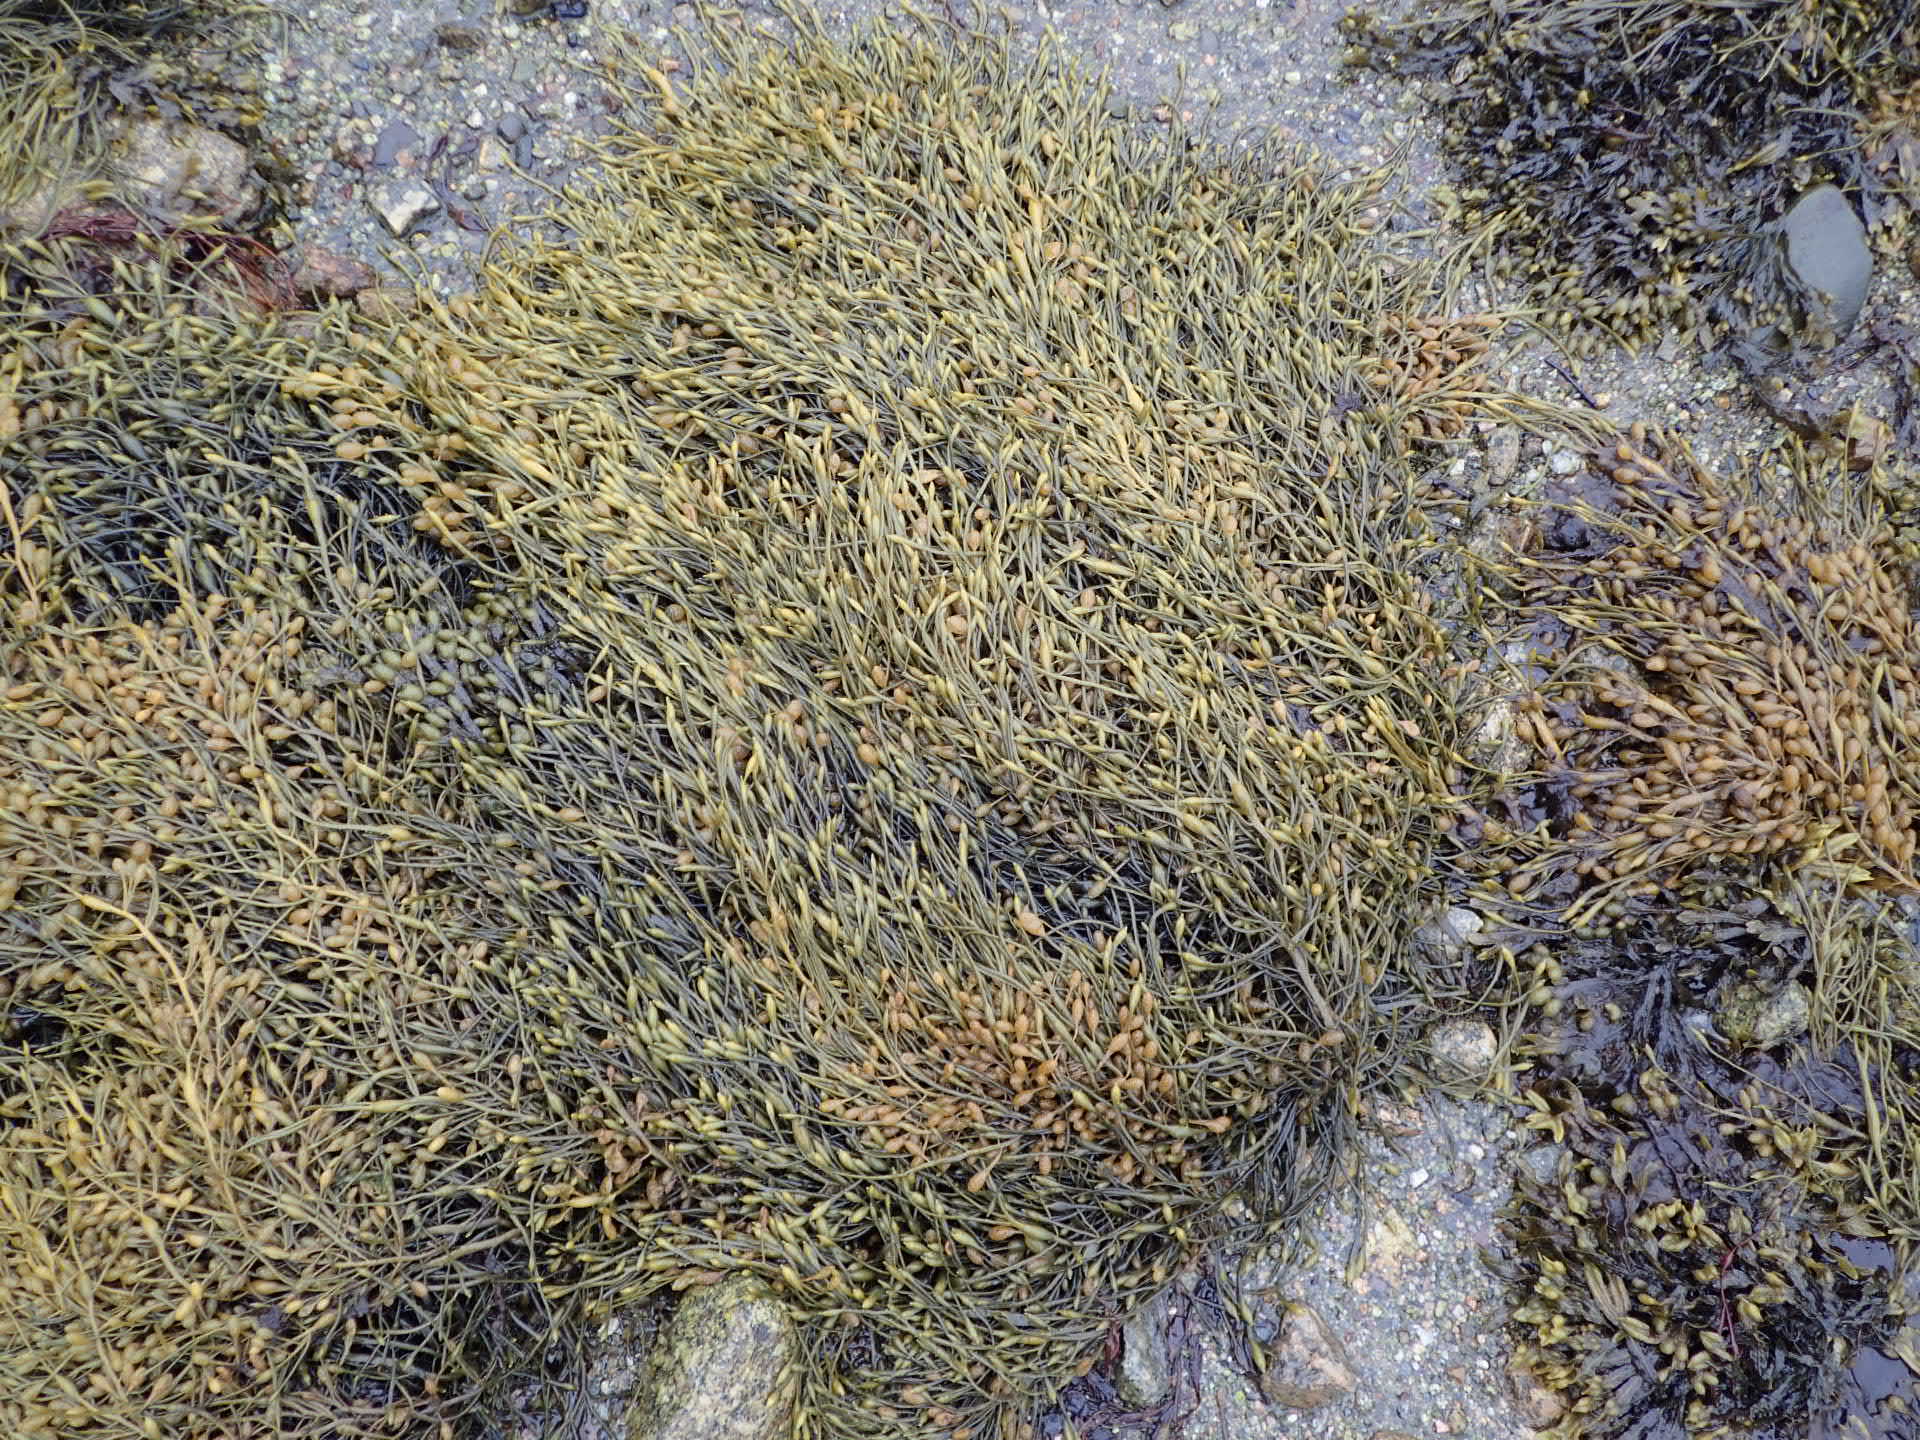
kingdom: Chromista
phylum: Ochrophyta
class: Phaeophyceae
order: Fucales
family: Fucaceae
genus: Ascophyllum
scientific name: Ascophyllum nodosum
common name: Knotted wrack
